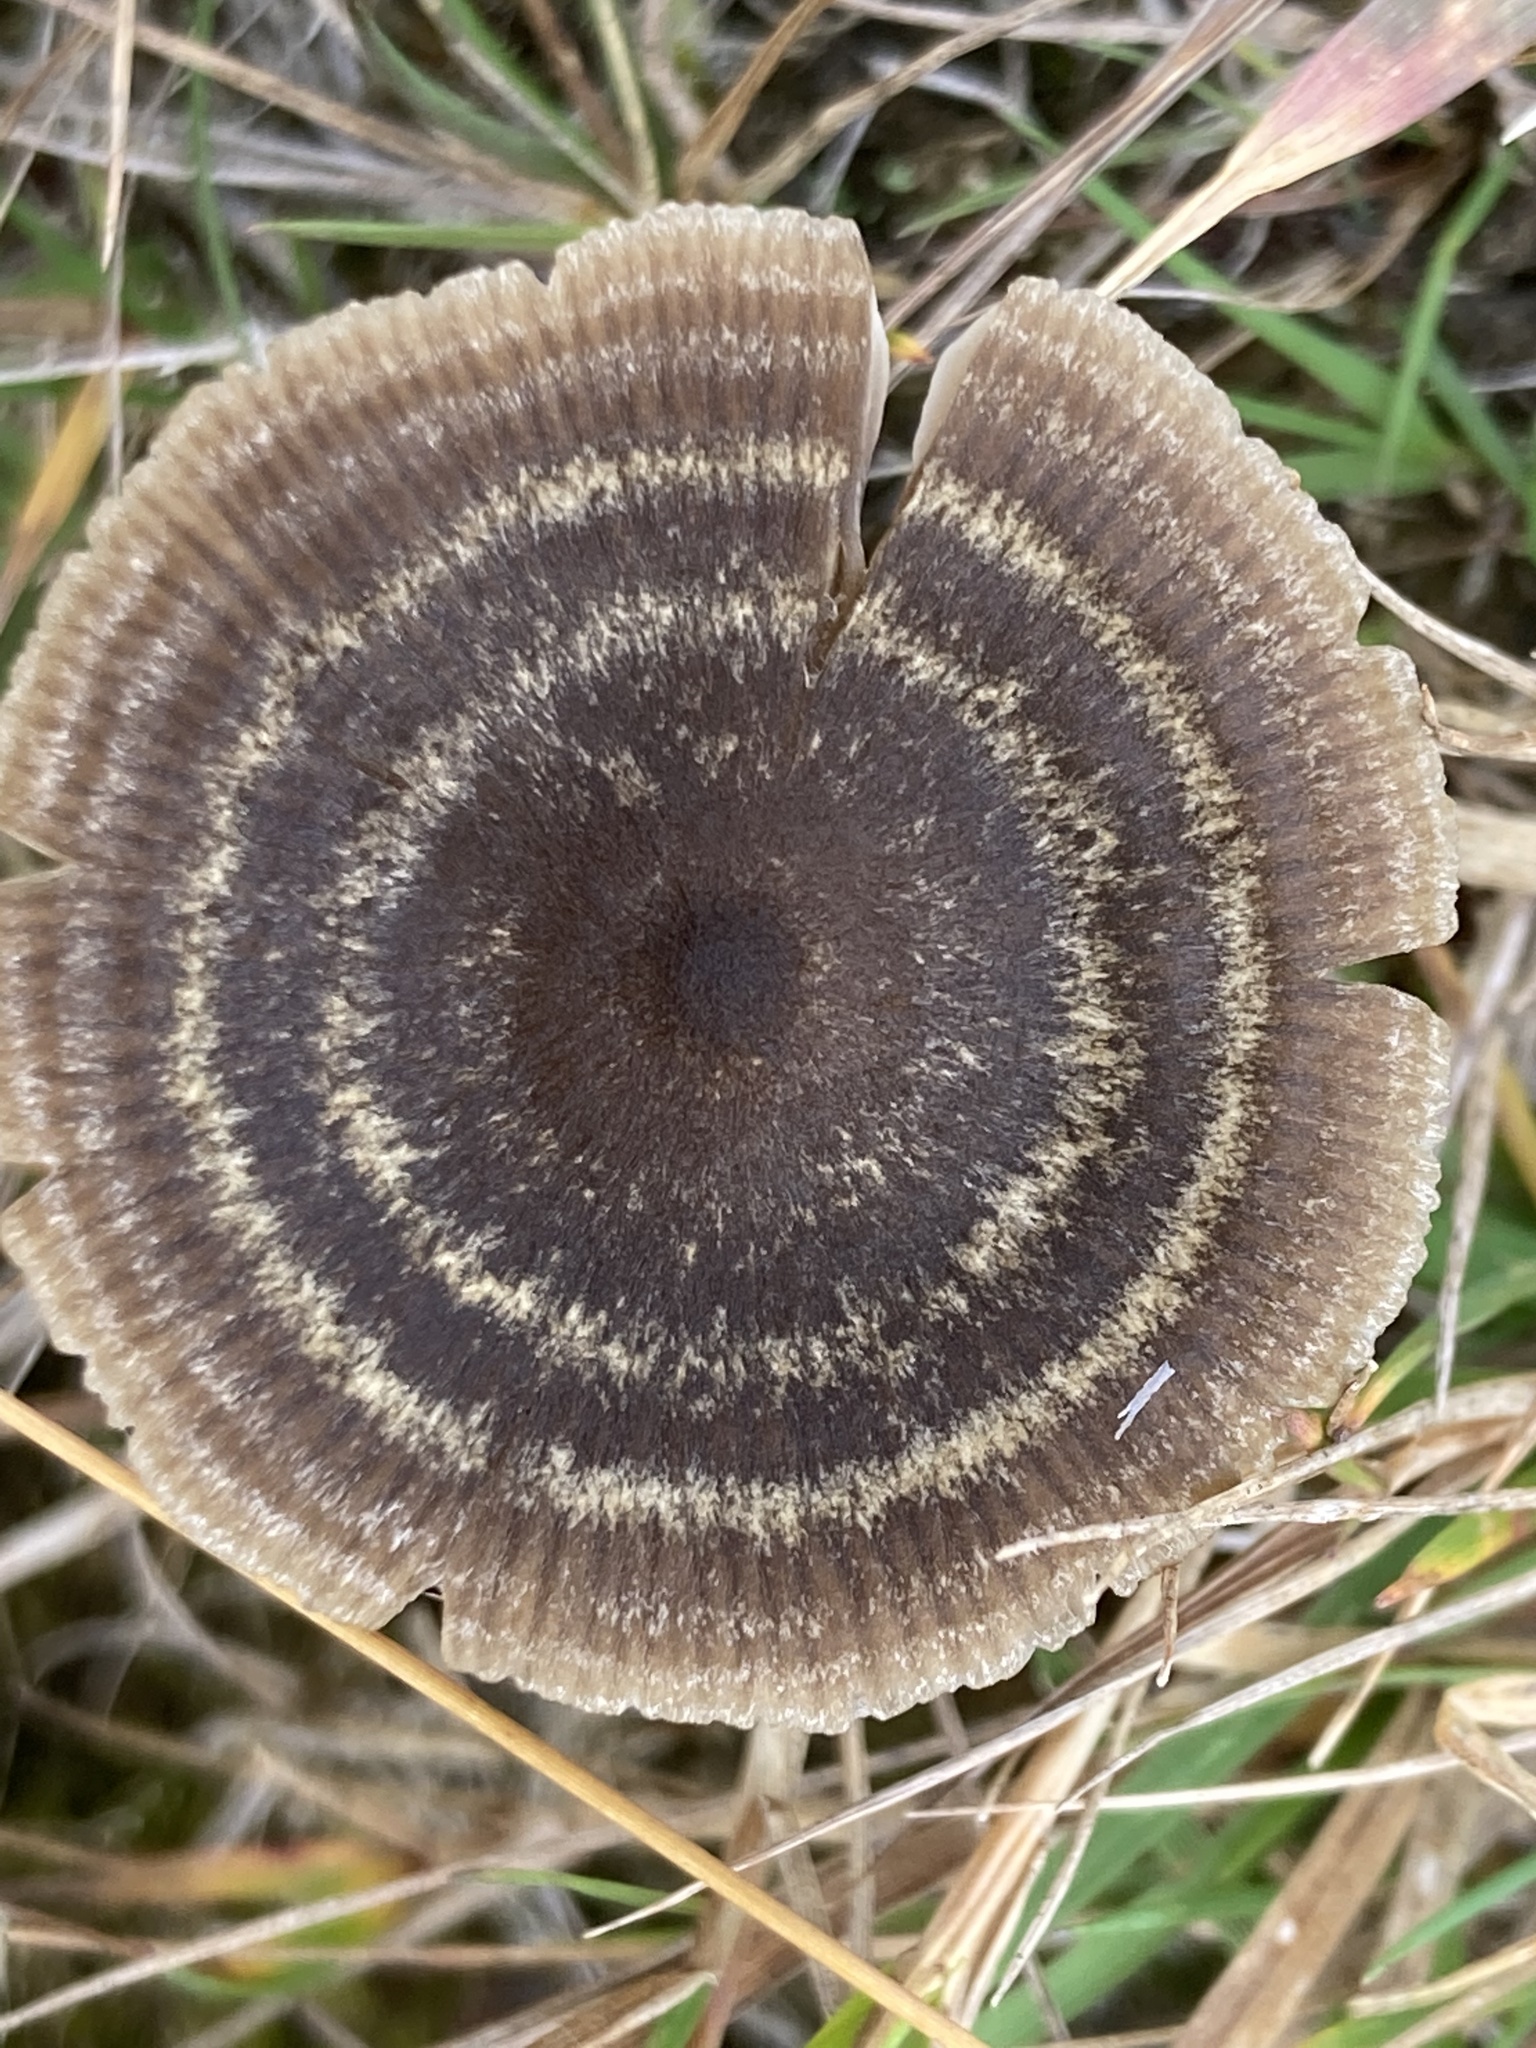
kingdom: Fungi
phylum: Basidiomycota
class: Agaricomycetes
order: Agaricales
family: Entolomataceae
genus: Entoloma
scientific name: Entoloma perzonatum
